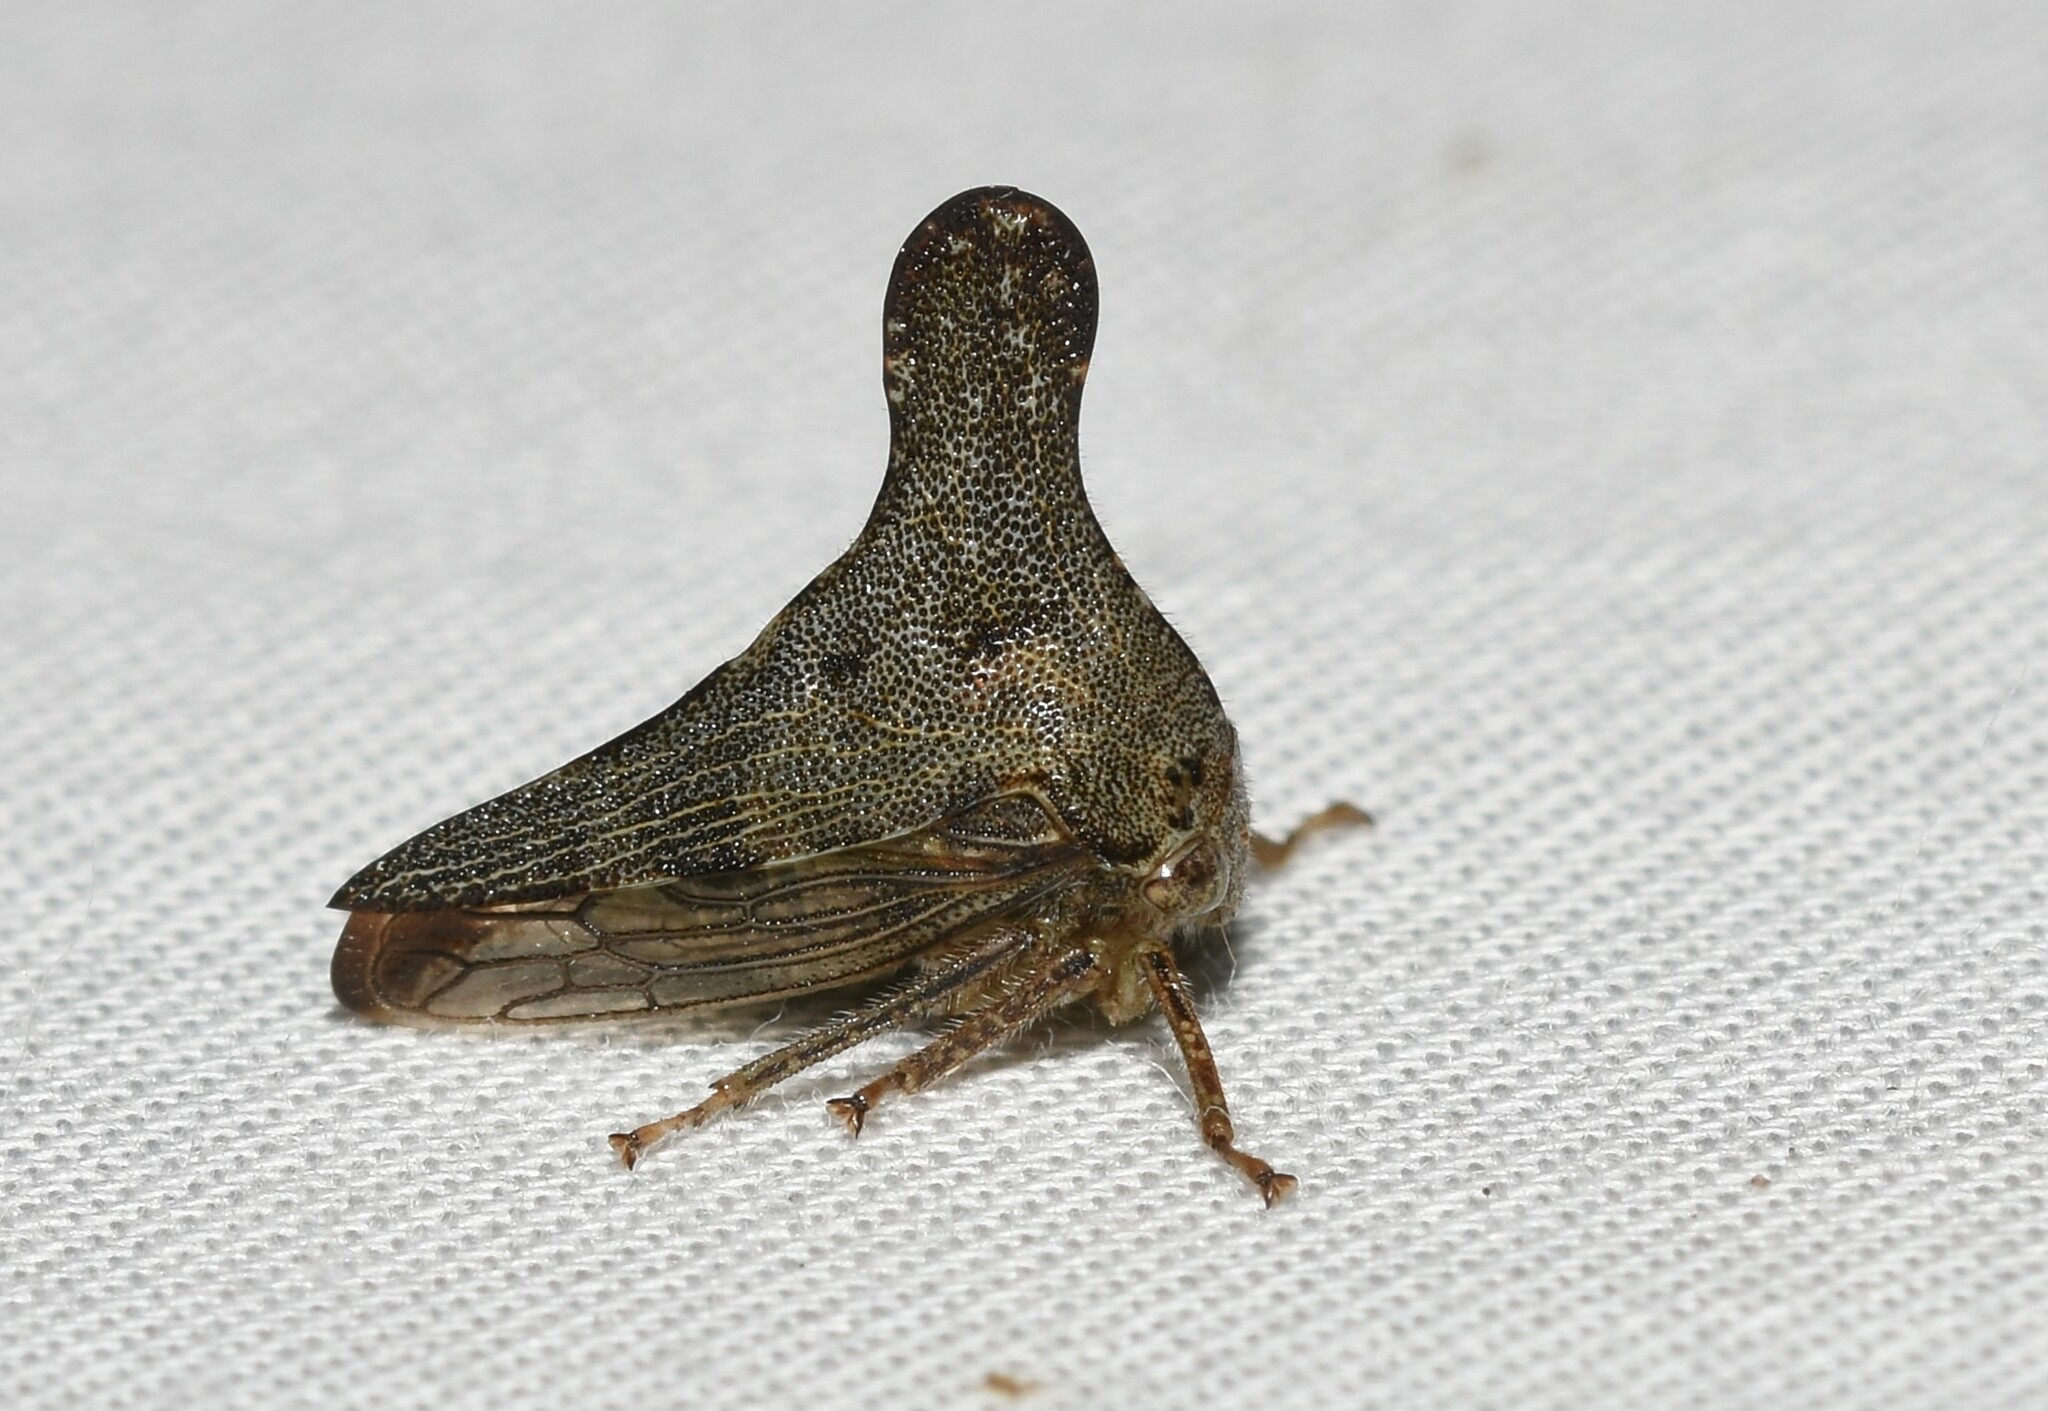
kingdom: Animalia
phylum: Arthropoda
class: Insecta
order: Hemiptera
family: Membracidae
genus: Glossonotus
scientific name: Glossonotus acuminata
